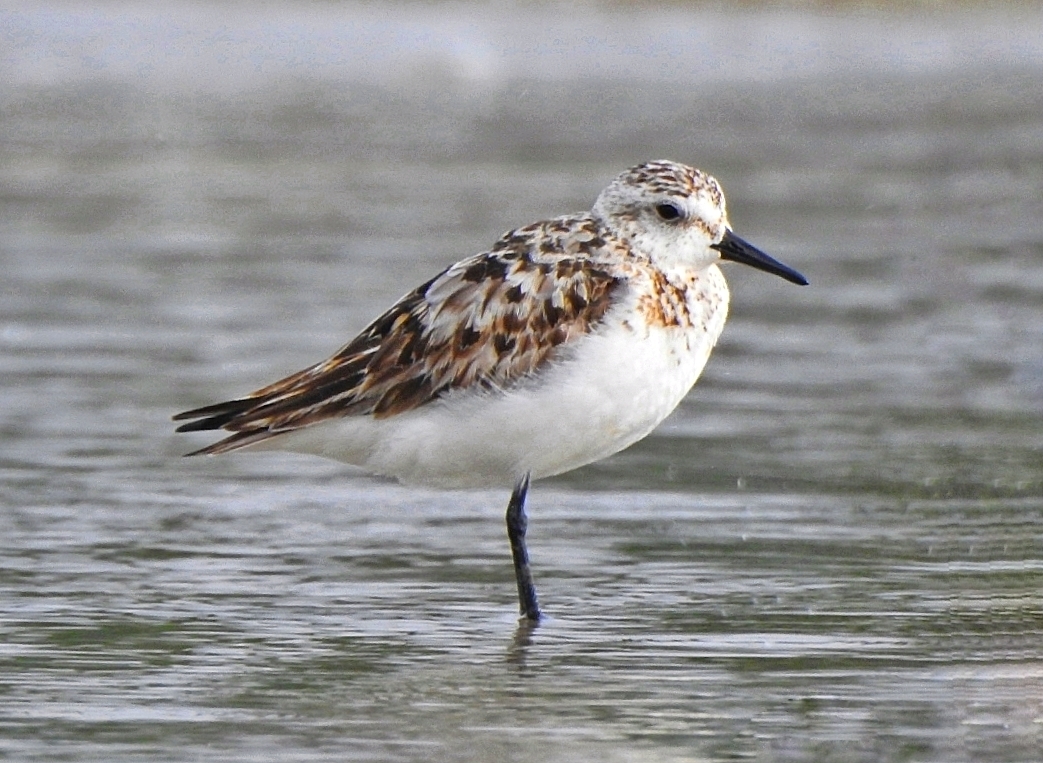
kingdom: Animalia
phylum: Chordata
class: Aves
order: Charadriiformes
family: Scolopacidae
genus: Calidris
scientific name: Calidris alba
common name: Sanderling
